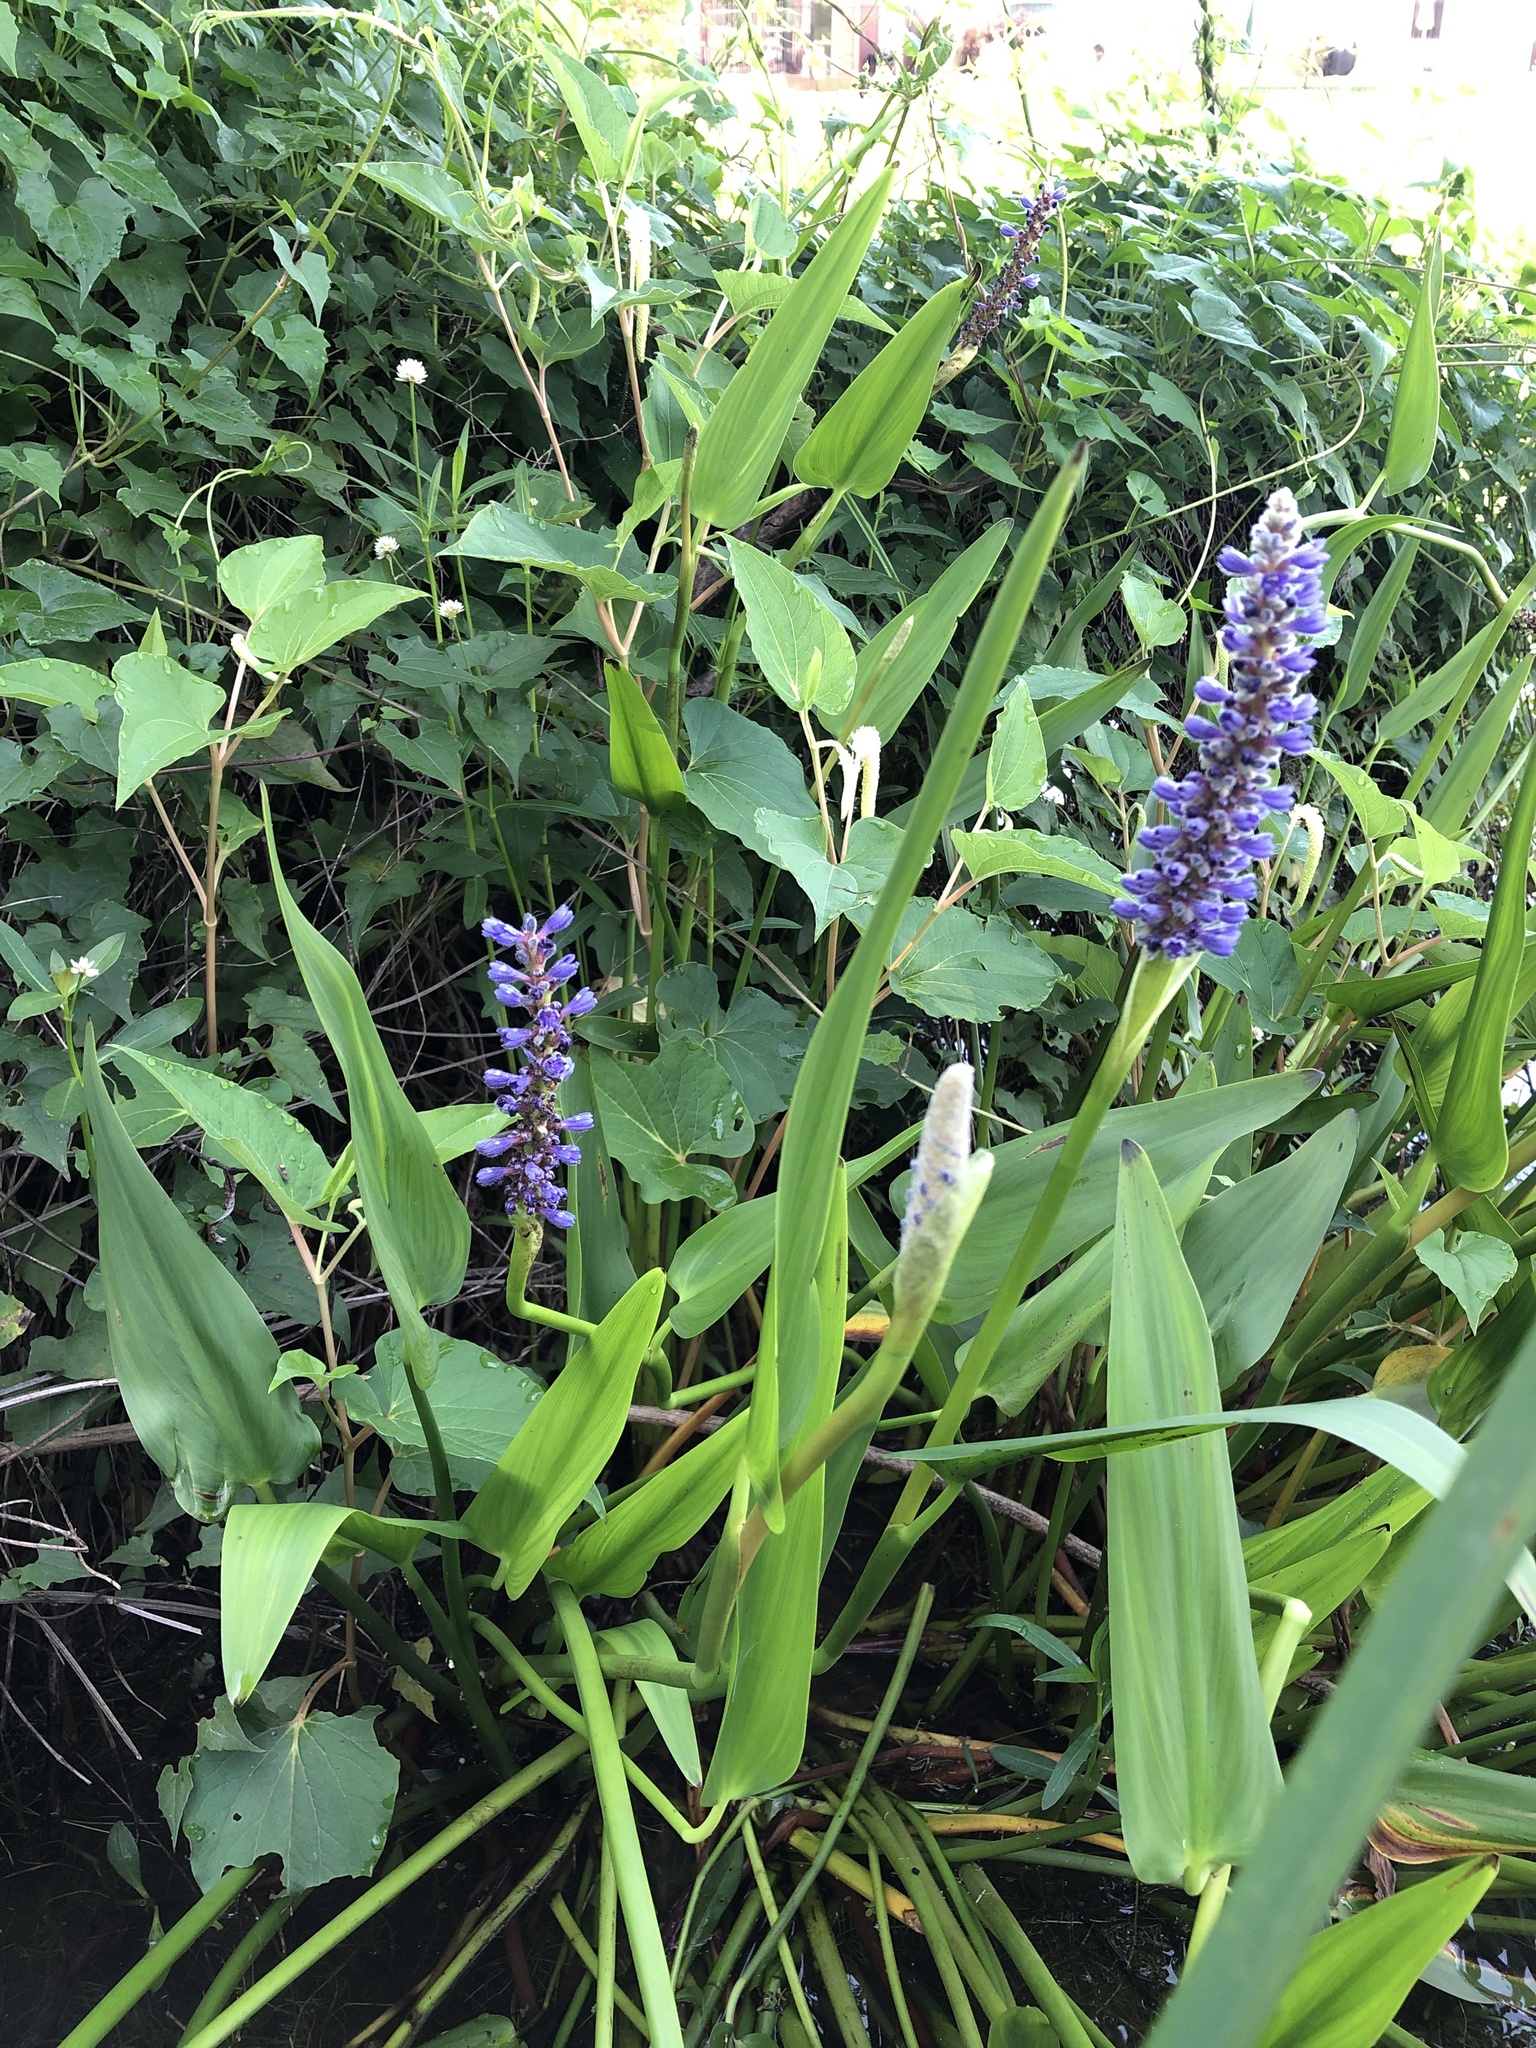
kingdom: Plantae
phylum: Tracheophyta
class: Liliopsida
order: Commelinales
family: Pontederiaceae
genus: Pontederia
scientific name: Pontederia cordata
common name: Pickerelweed
